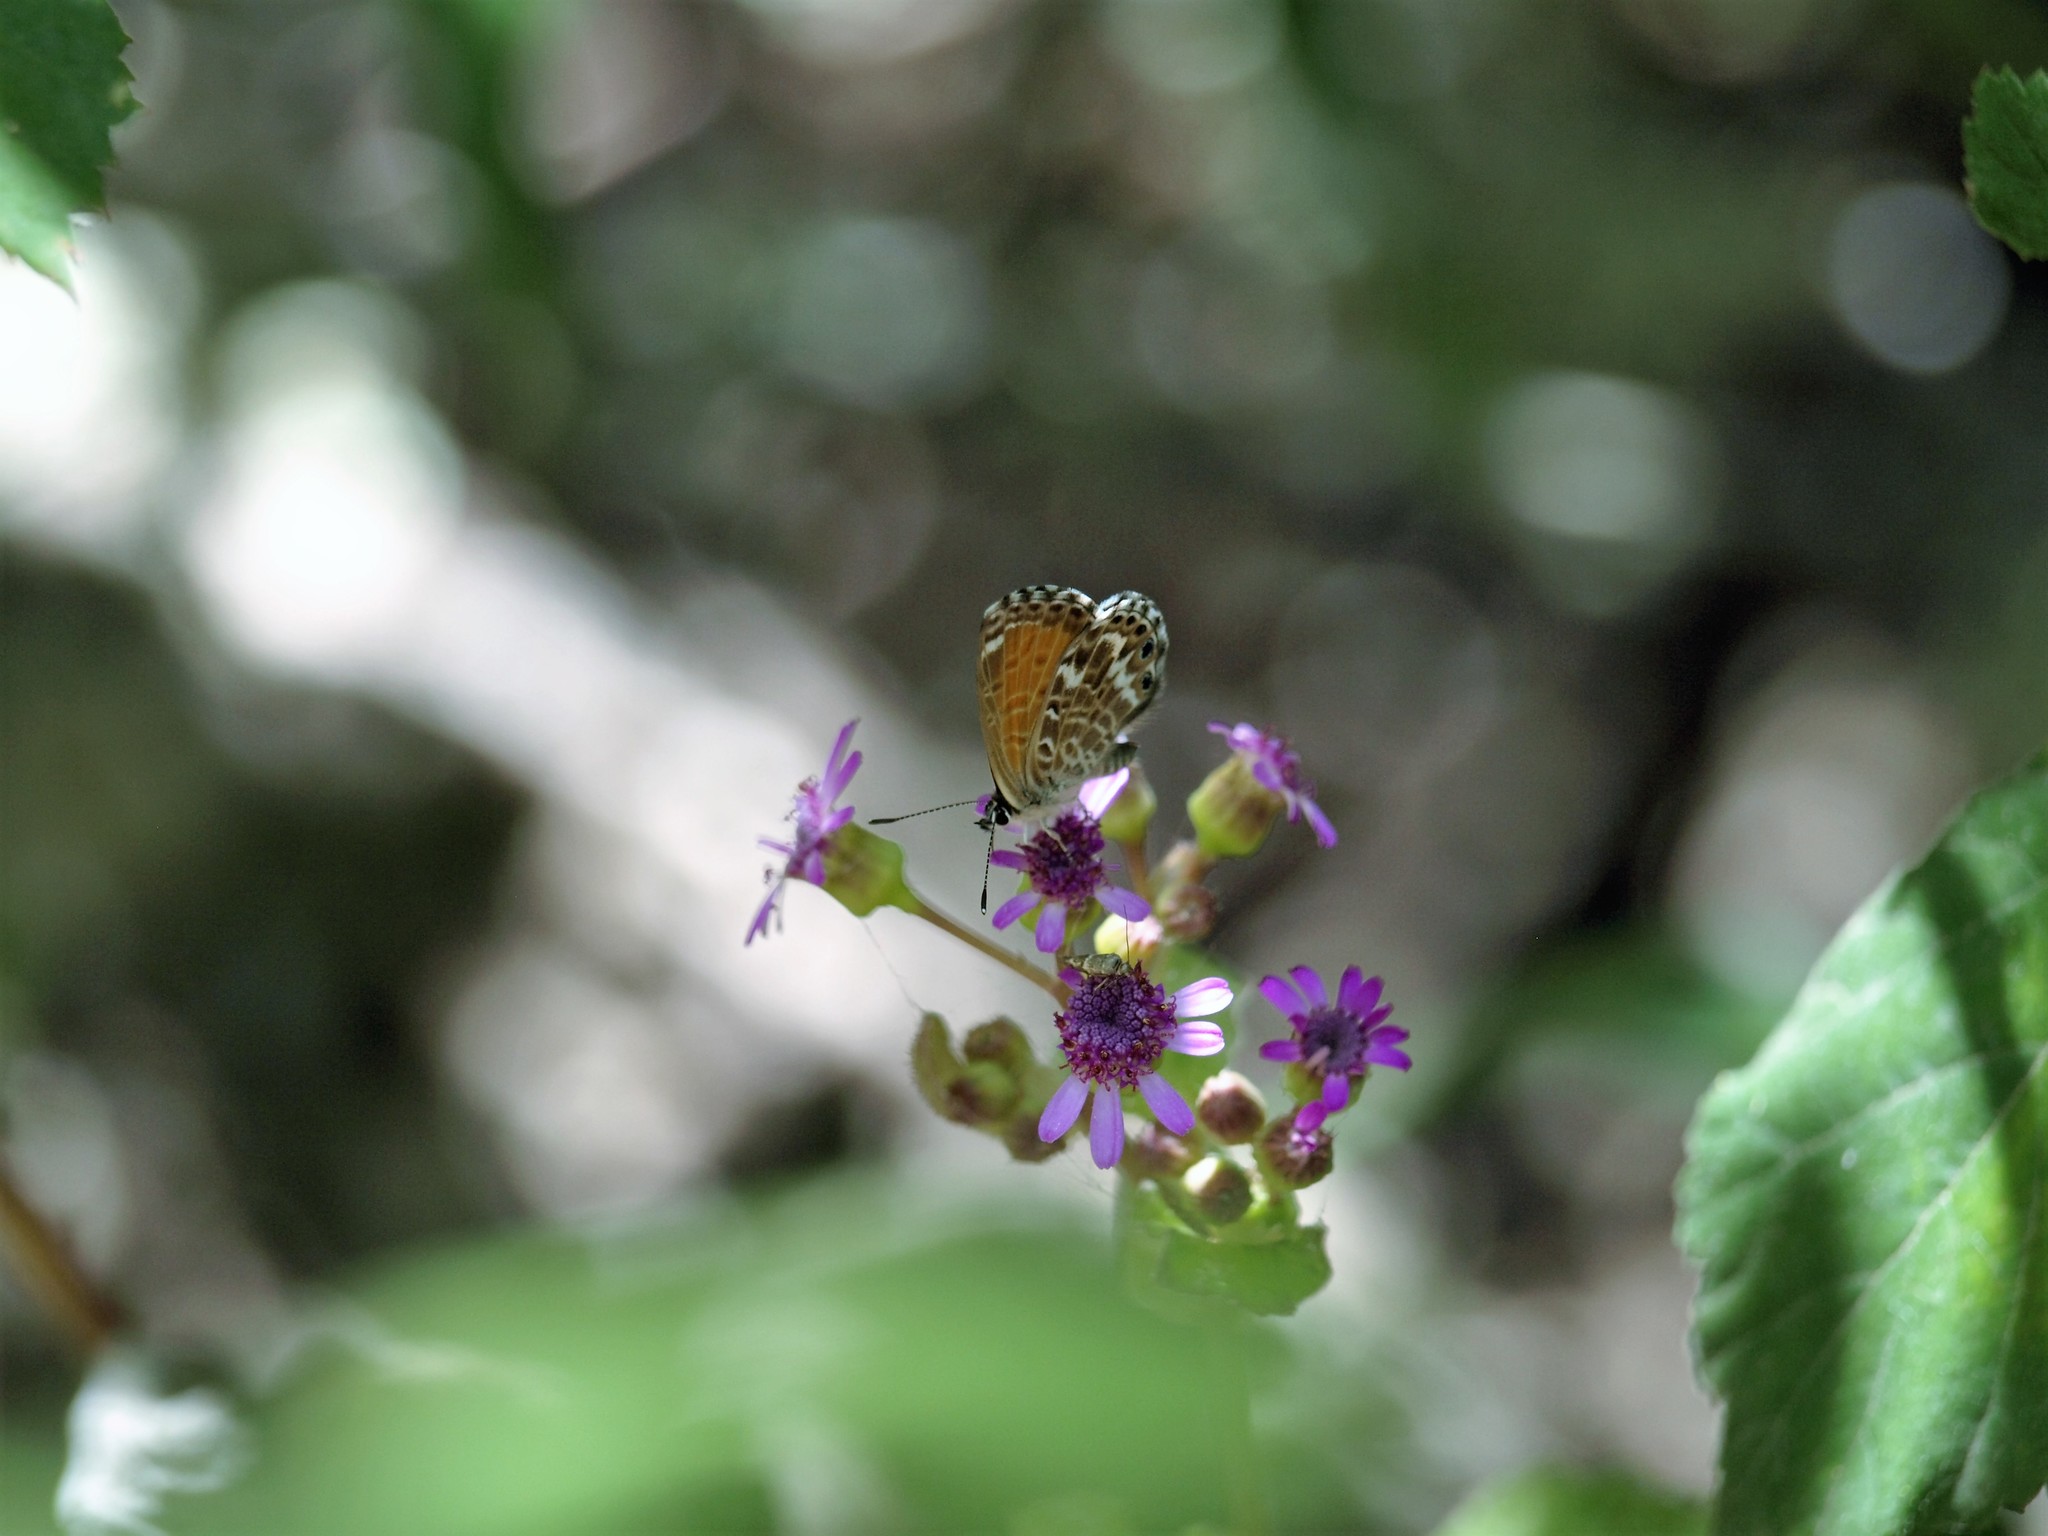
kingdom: Animalia
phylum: Arthropoda
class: Insecta
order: Lepidoptera
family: Lycaenidae
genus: Cyclyrius
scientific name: Cyclyrius webbianus
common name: Canary blue
